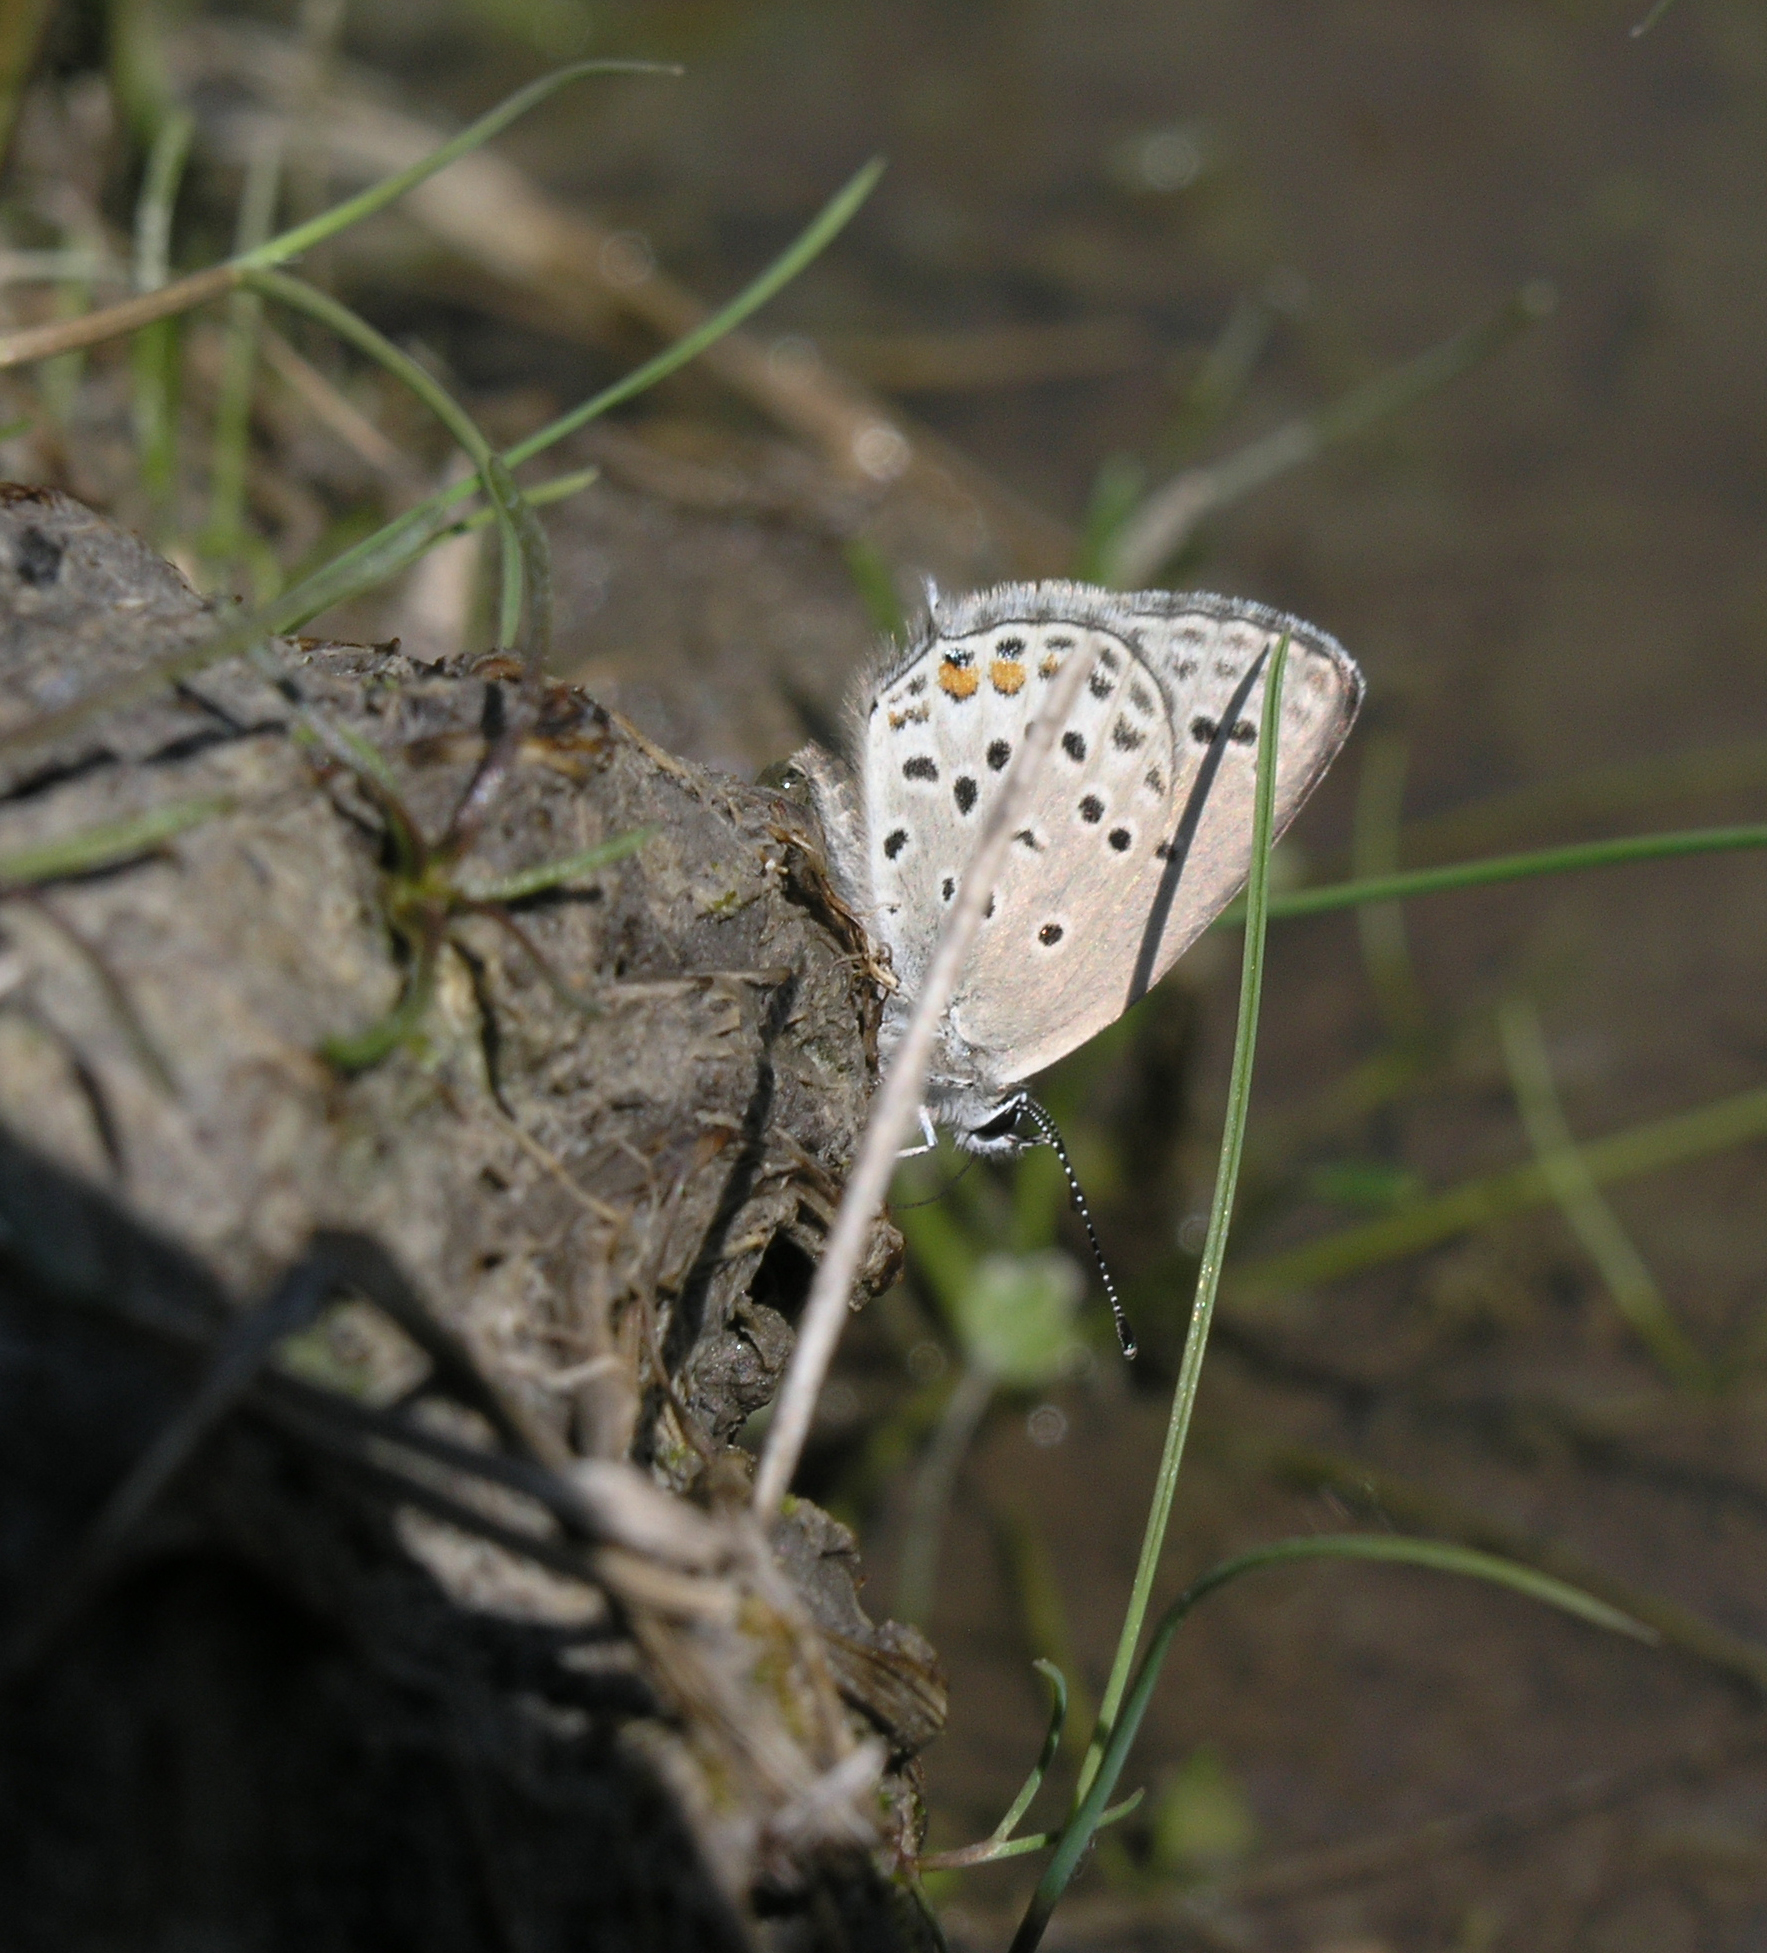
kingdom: Animalia
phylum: Arthropoda
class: Insecta
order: Lepidoptera
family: Lycaenidae
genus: Tongeia
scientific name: Tongeia fischeri
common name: Fischer's blue
